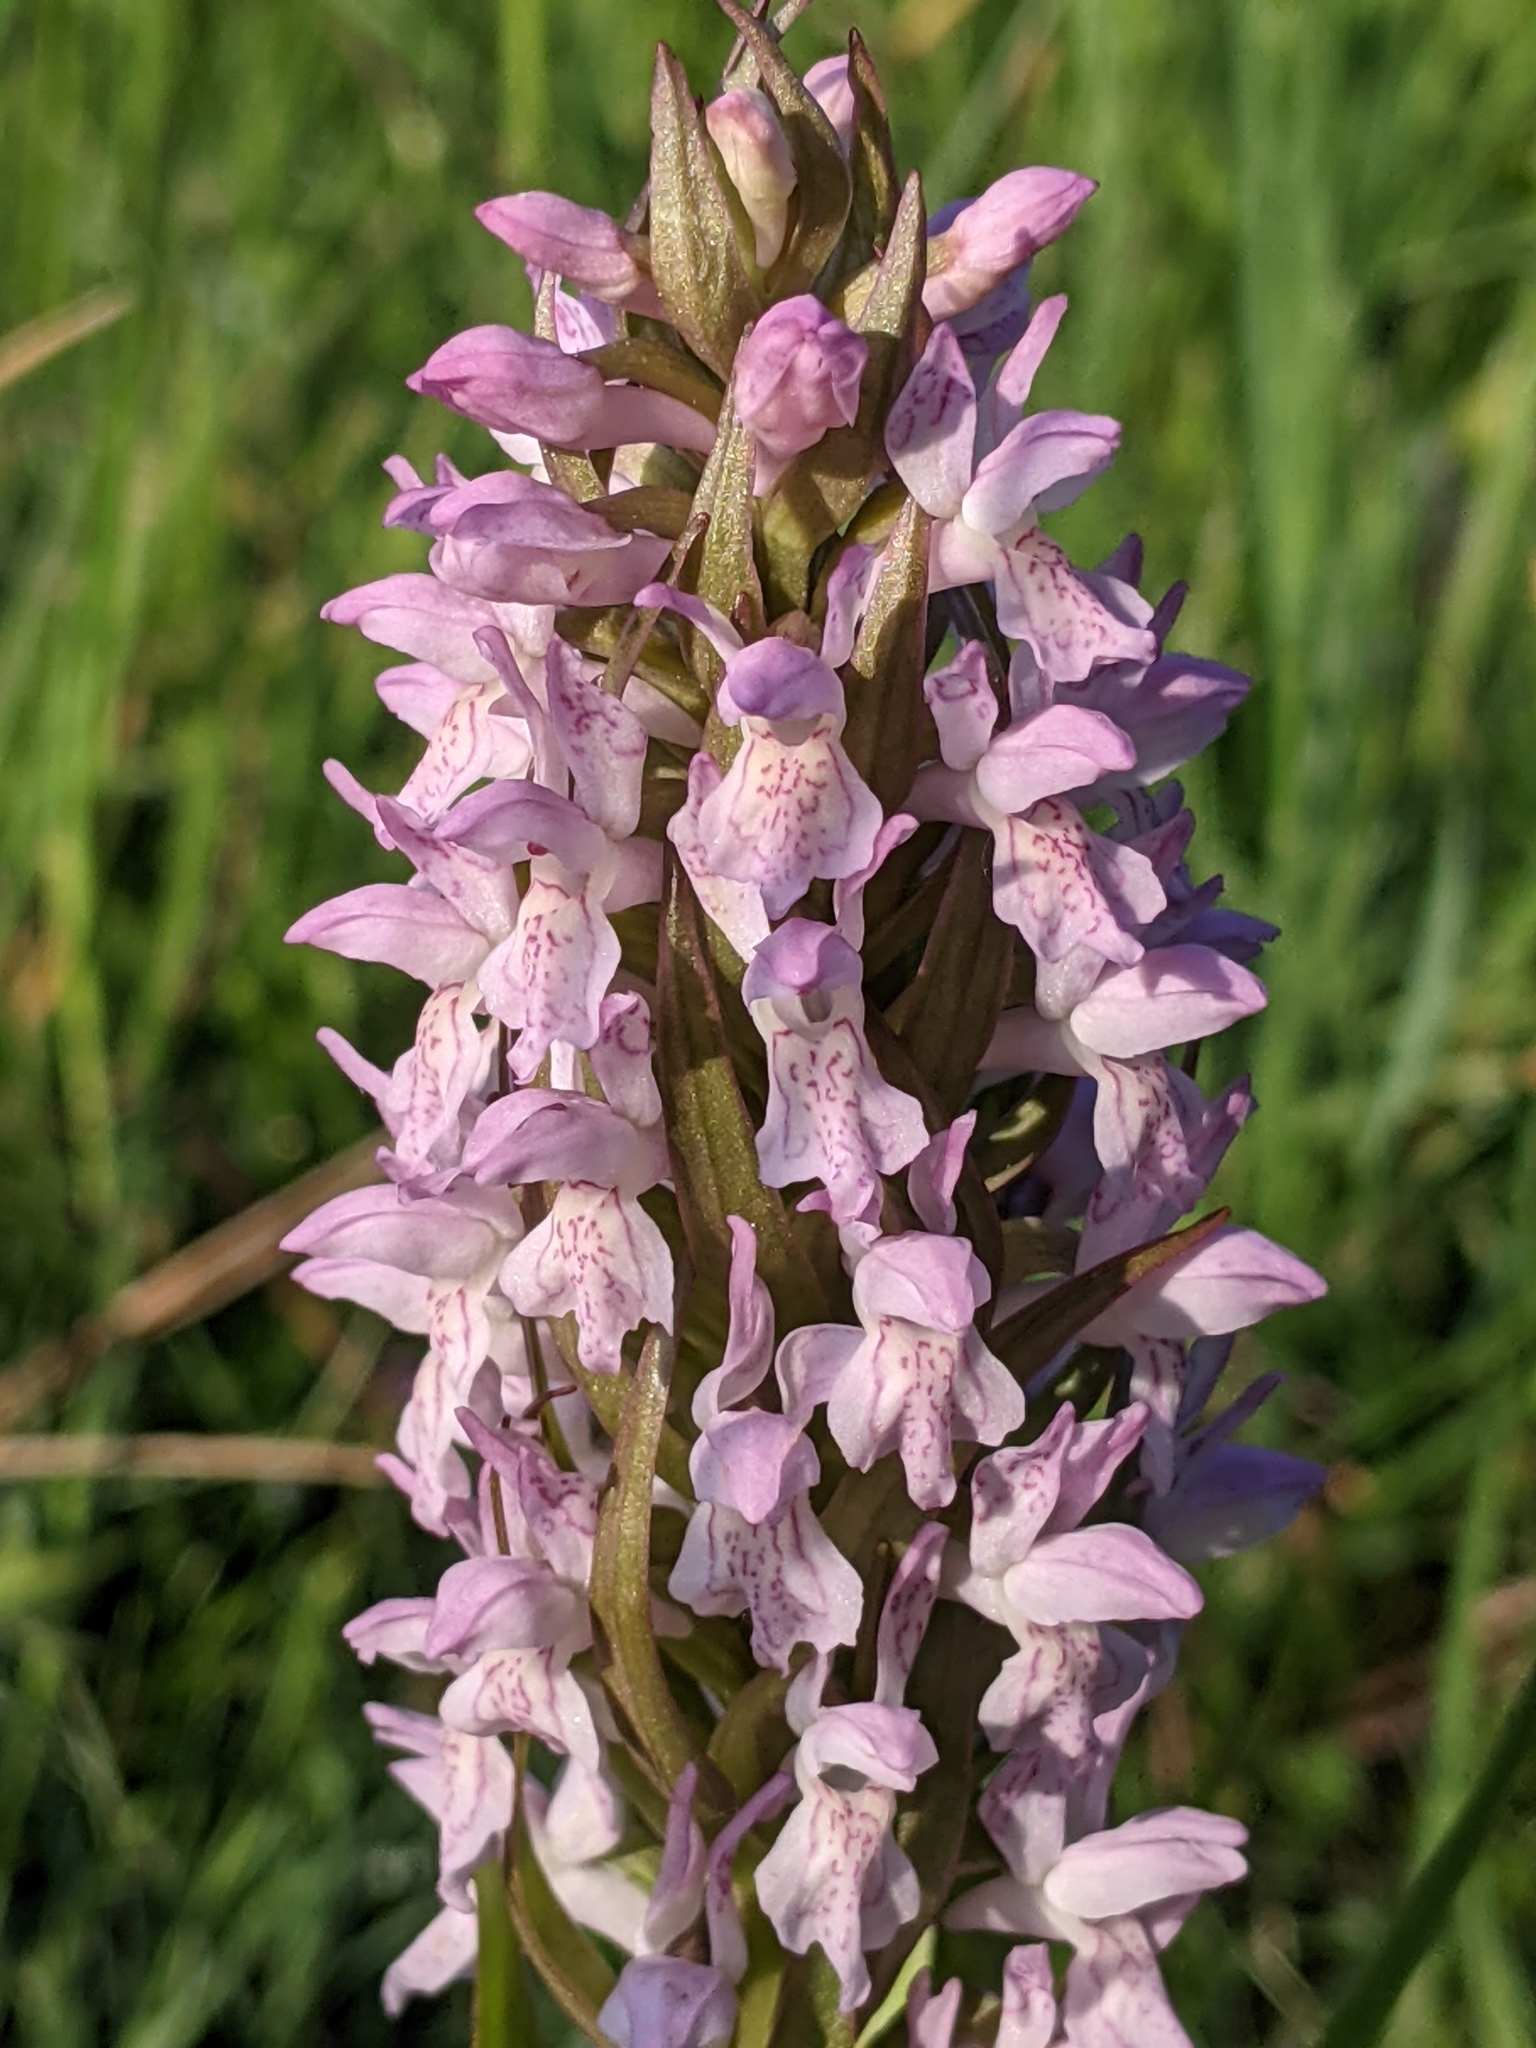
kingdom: Plantae
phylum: Tracheophyta
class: Liliopsida
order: Asparagales
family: Orchidaceae
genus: Dactylorhiza
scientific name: Dactylorhiza incarnata
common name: Early marsh-orchid
